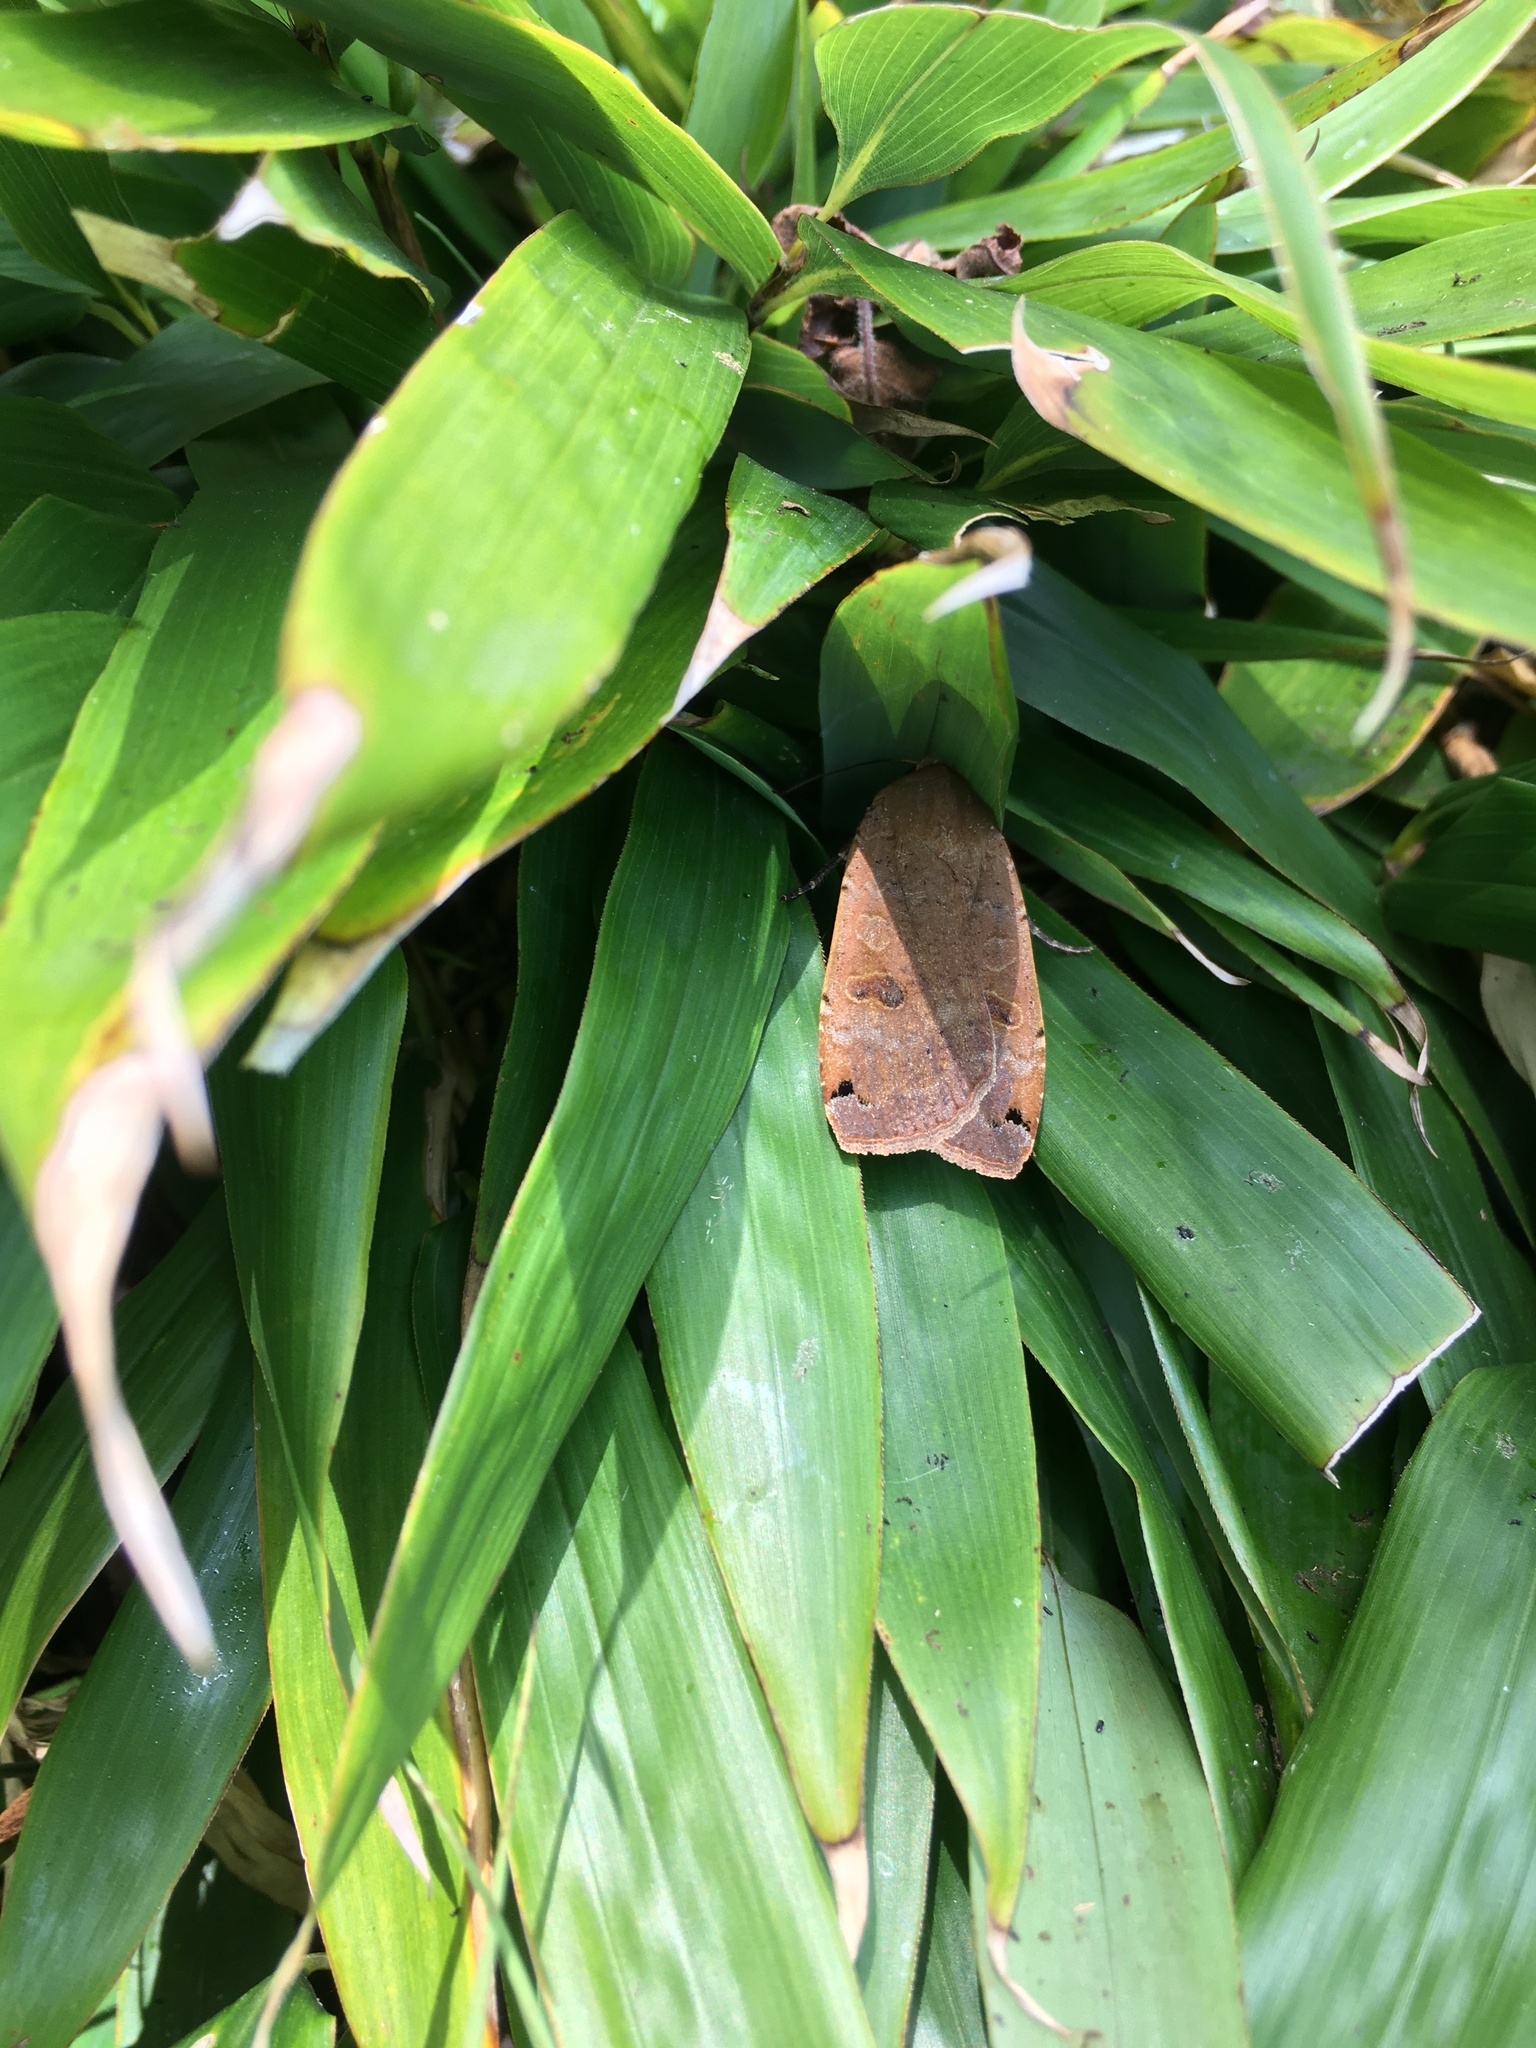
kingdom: Animalia
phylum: Arthropoda
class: Insecta
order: Lepidoptera
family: Noctuidae
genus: Noctua
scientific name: Noctua pronuba
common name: Large yellow underwing
